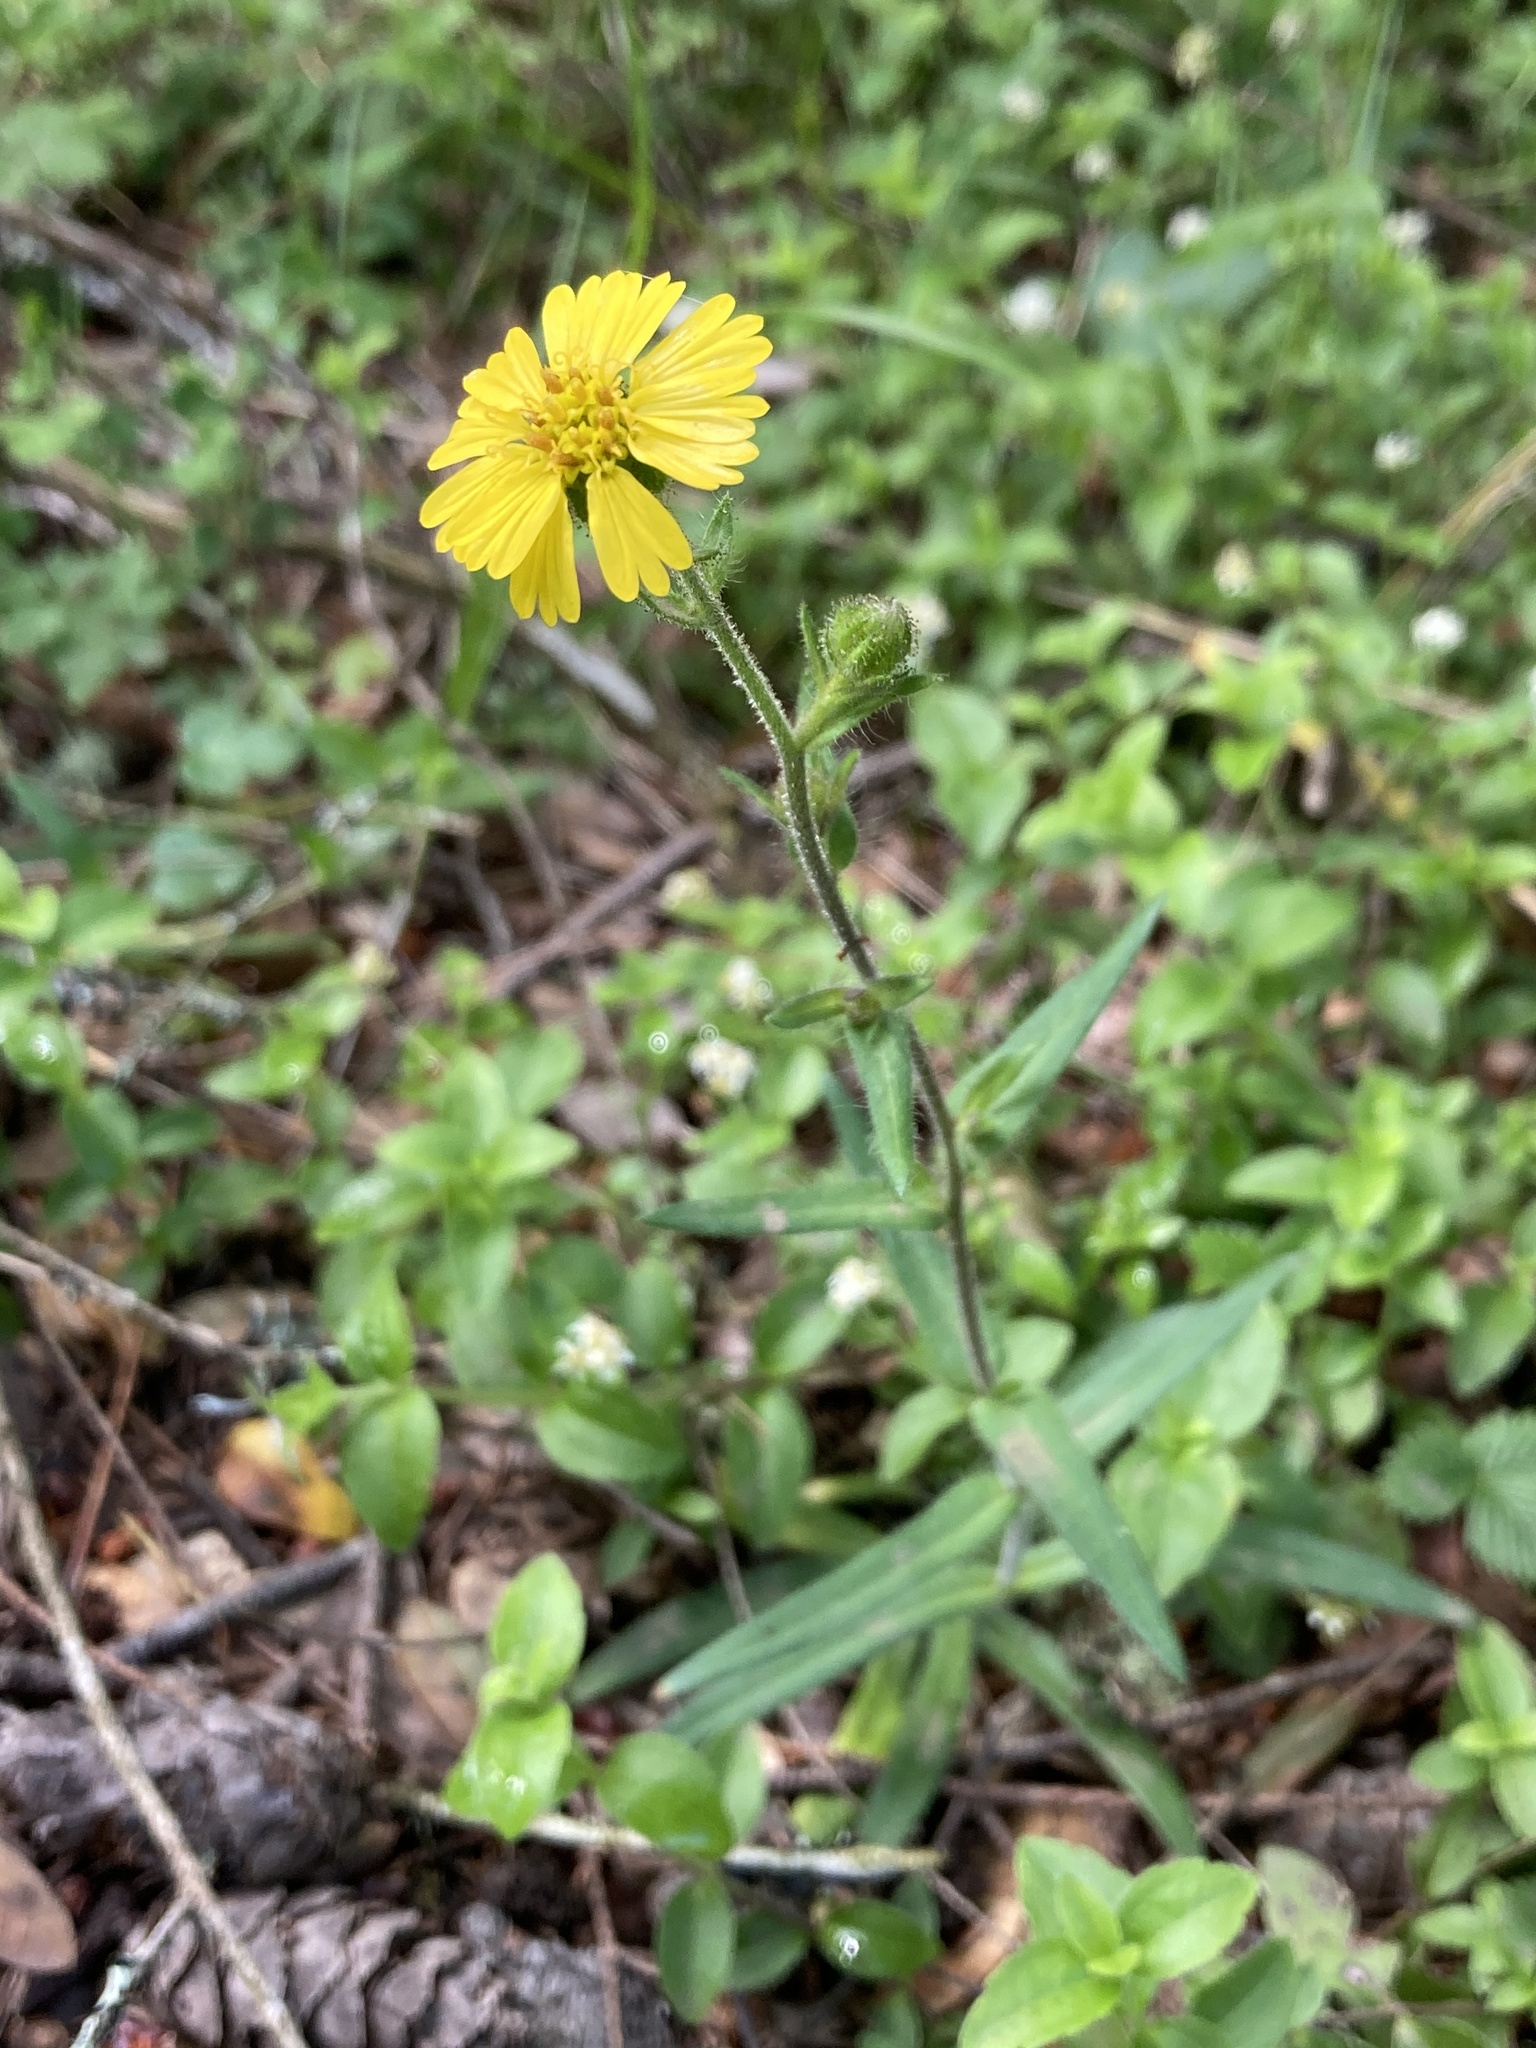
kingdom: Plantae
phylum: Tracheophyta
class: Magnoliopsida
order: Asterales
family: Asteraceae
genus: Anisocarpus
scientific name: Anisocarpus madioides
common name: Woodland madia
